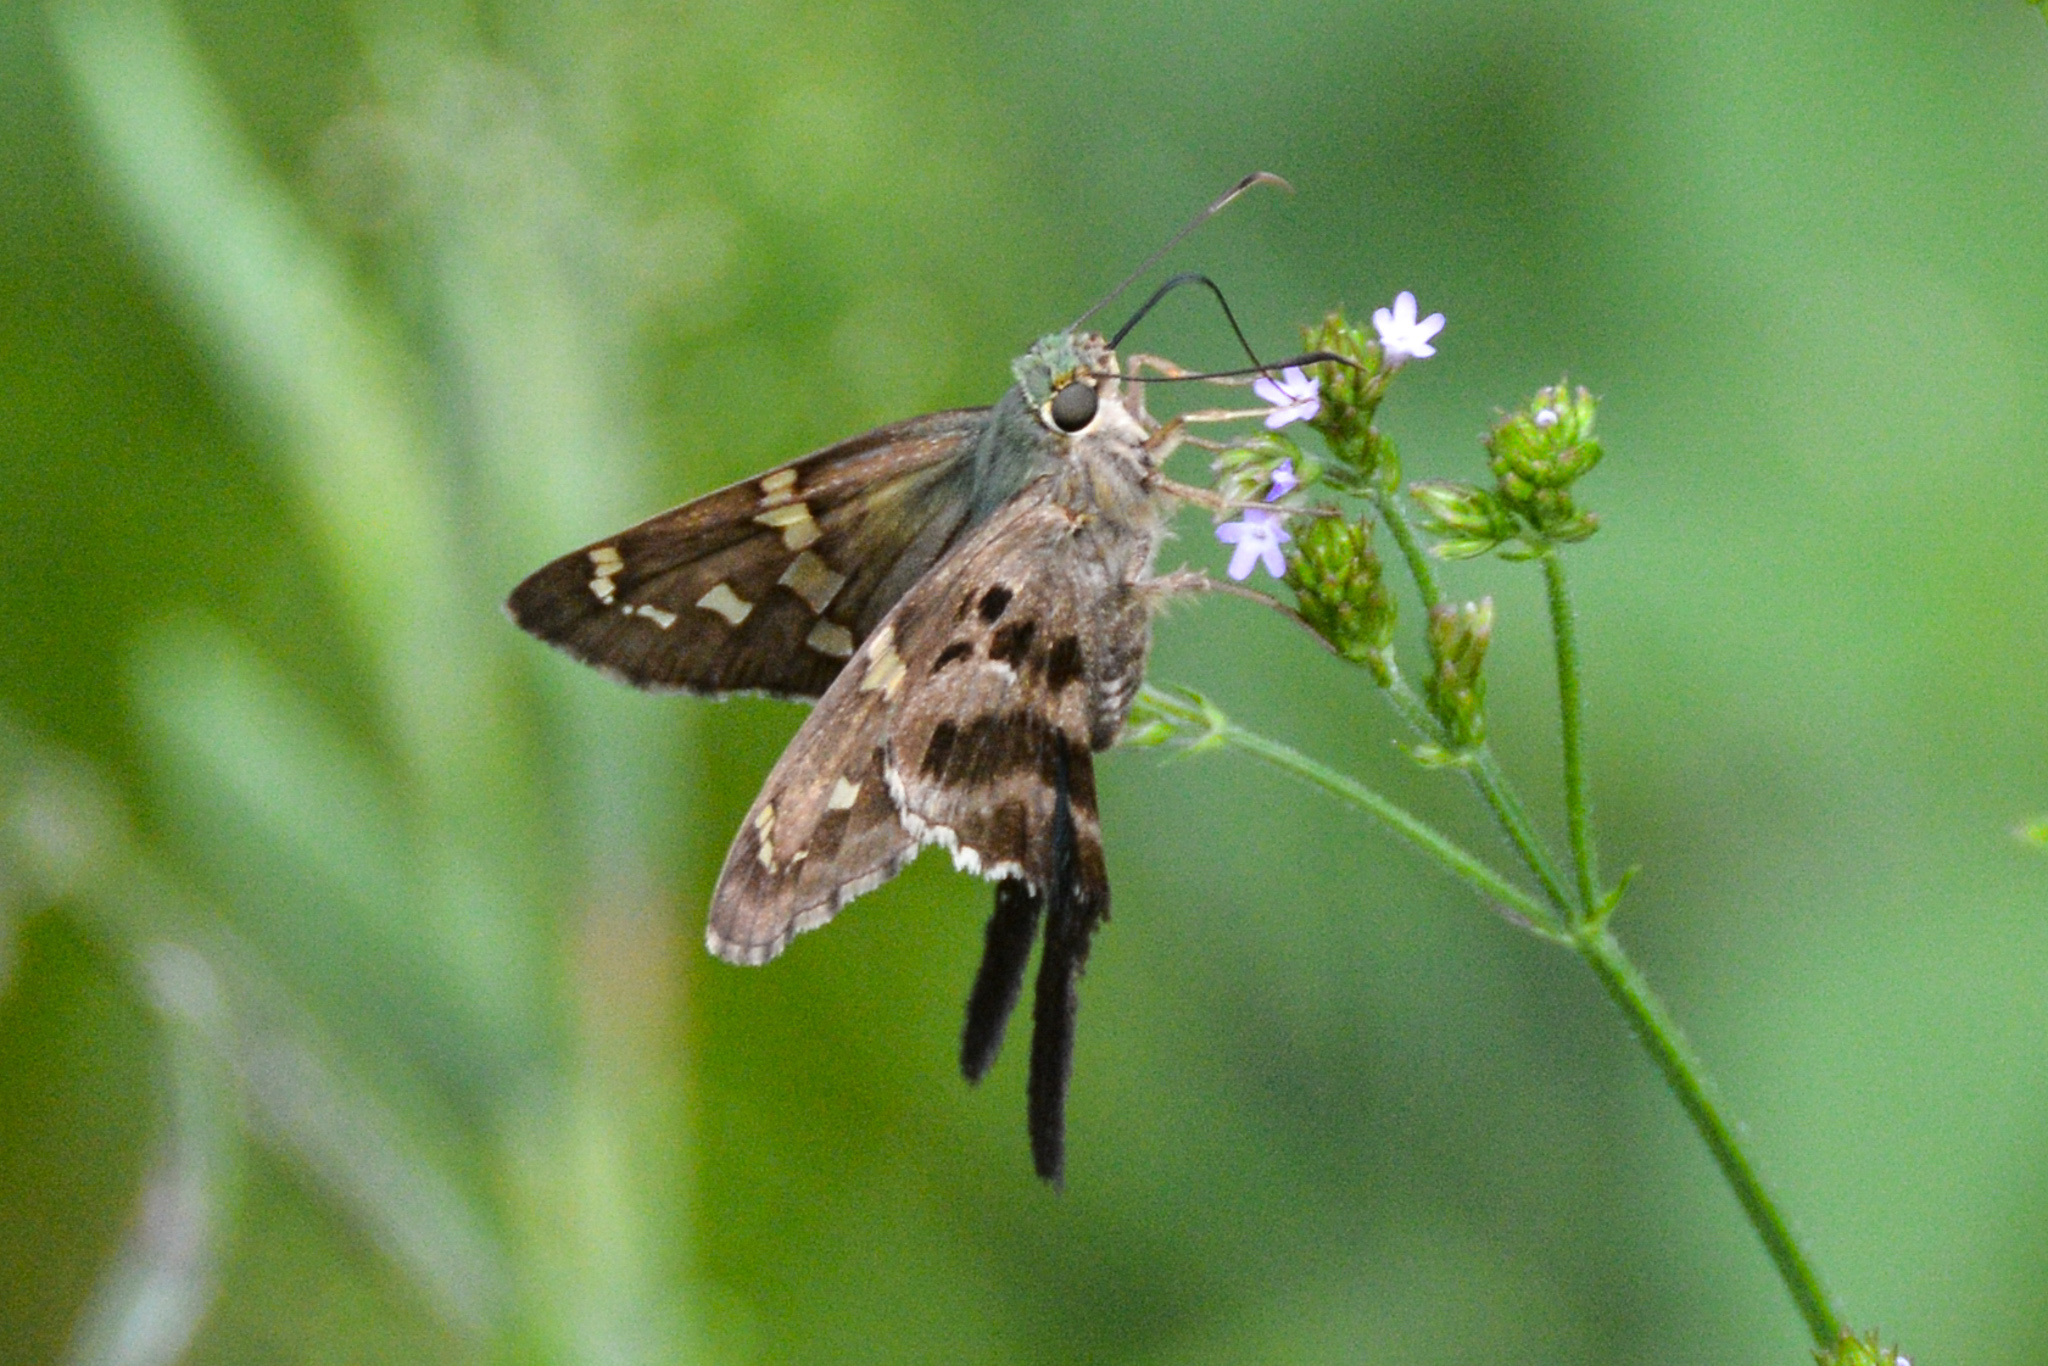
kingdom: Animalia
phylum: Arthropoda
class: Insecta
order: Lepidoptera
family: Hesperiidae
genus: Urbanus
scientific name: Urbanus proteus
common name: Long-tailed skipper
